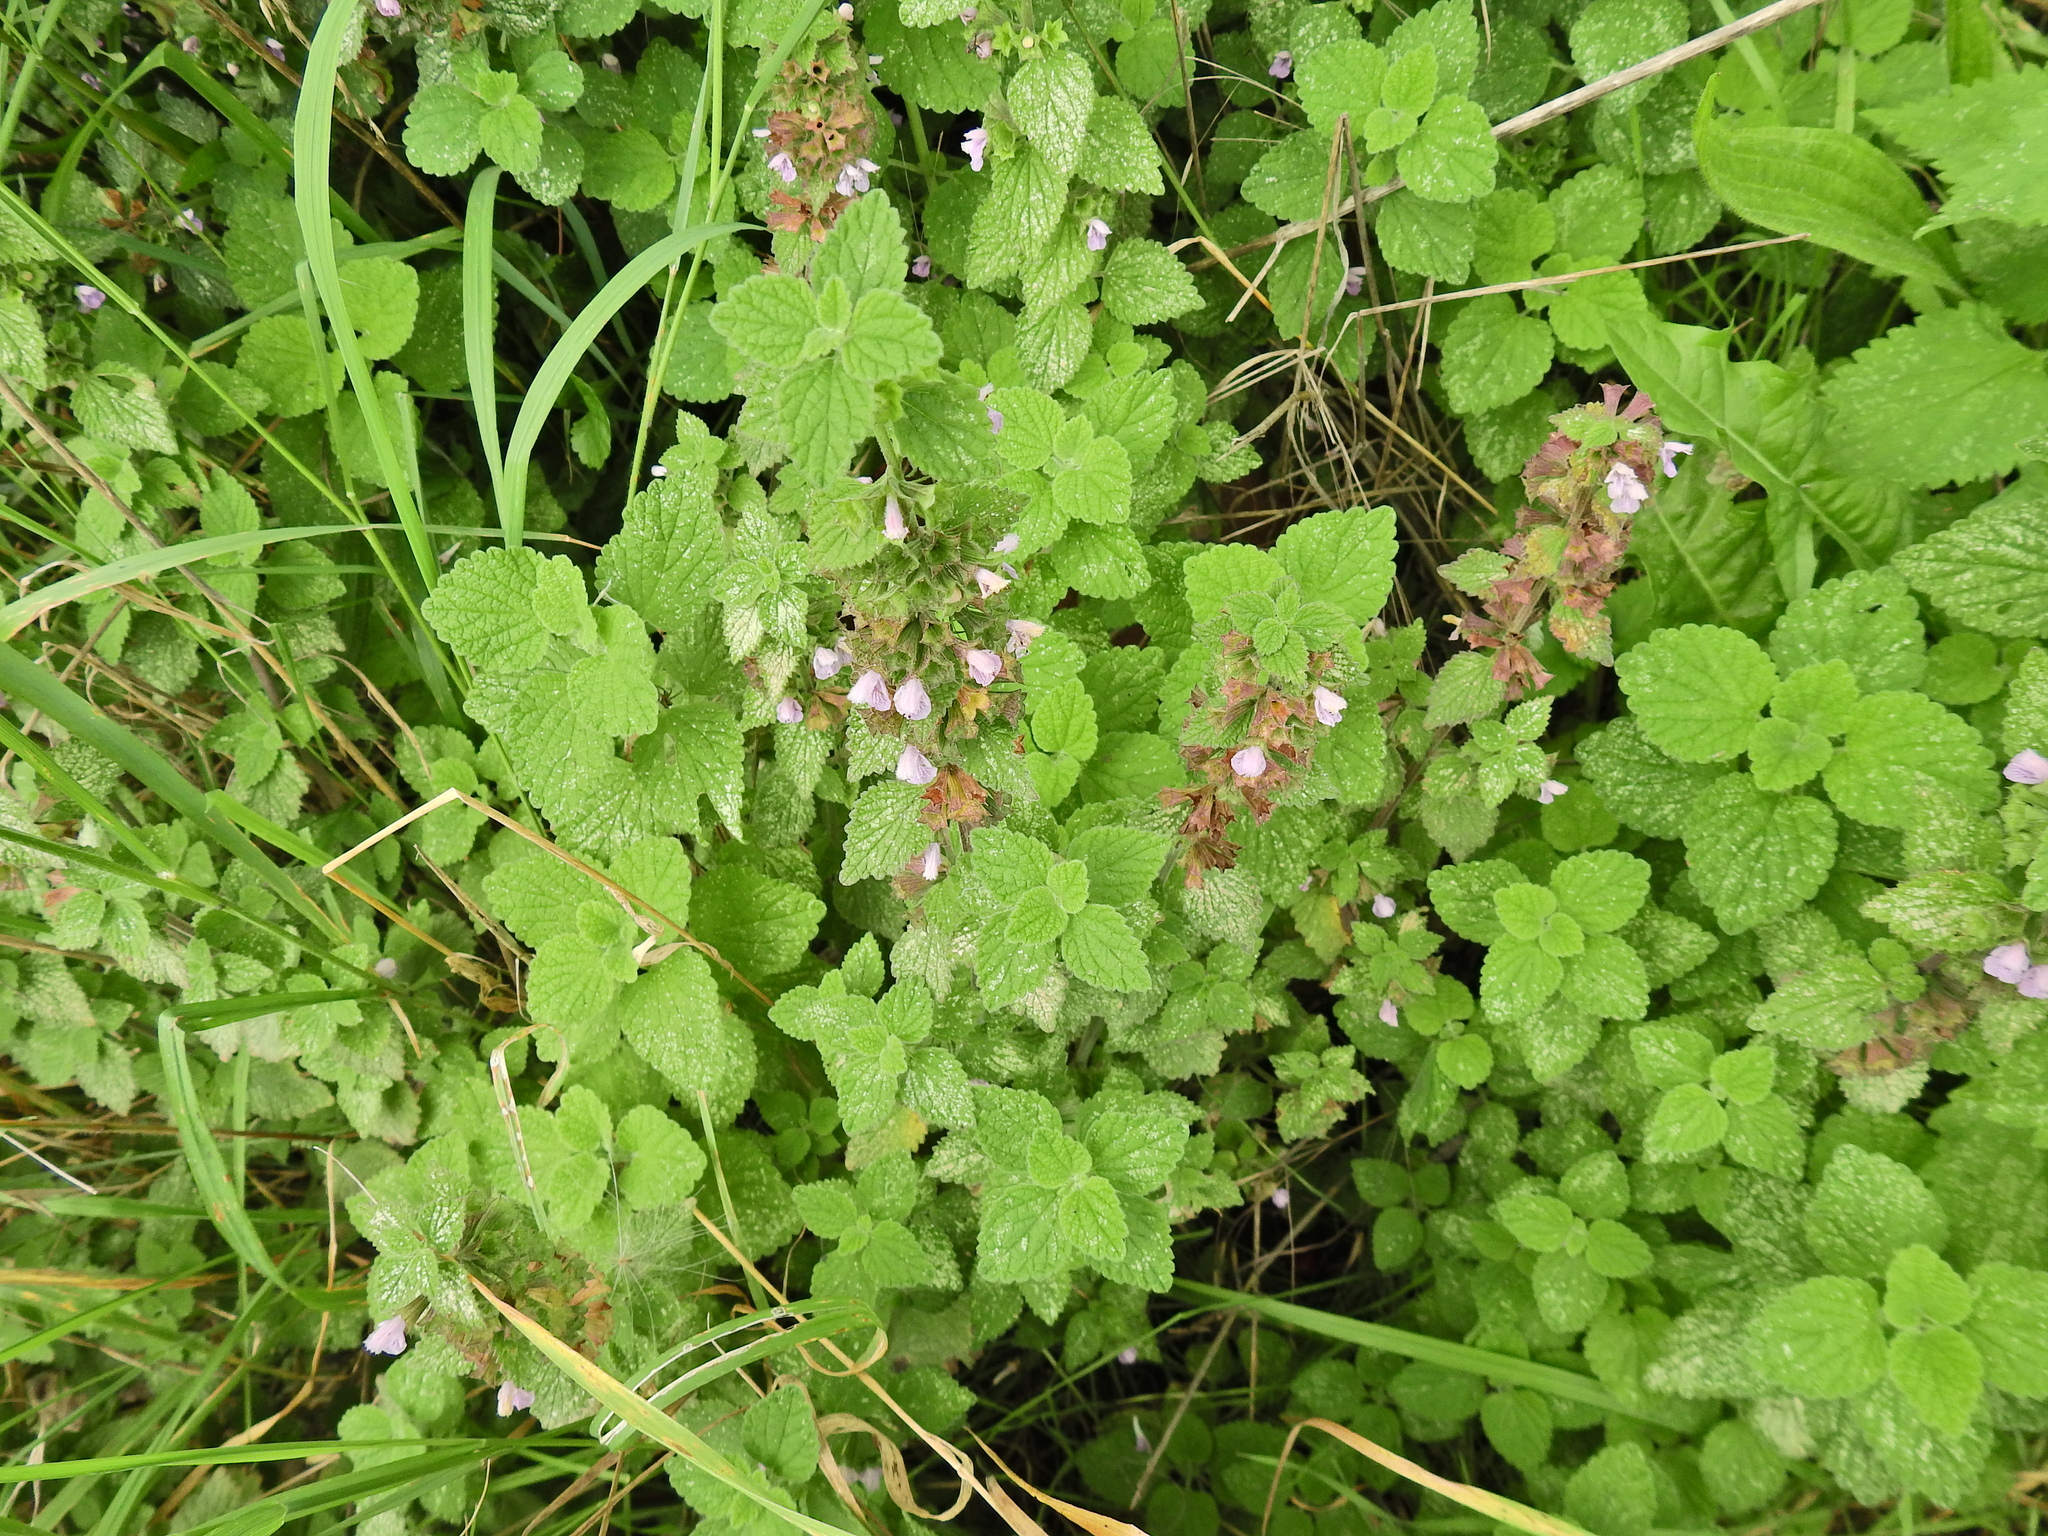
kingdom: Plantae
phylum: Tracheophyta
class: Magnoliopsida
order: Lamiales
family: Lamiaceae
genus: Ballota
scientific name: Ballota nigra
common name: Black horehound
